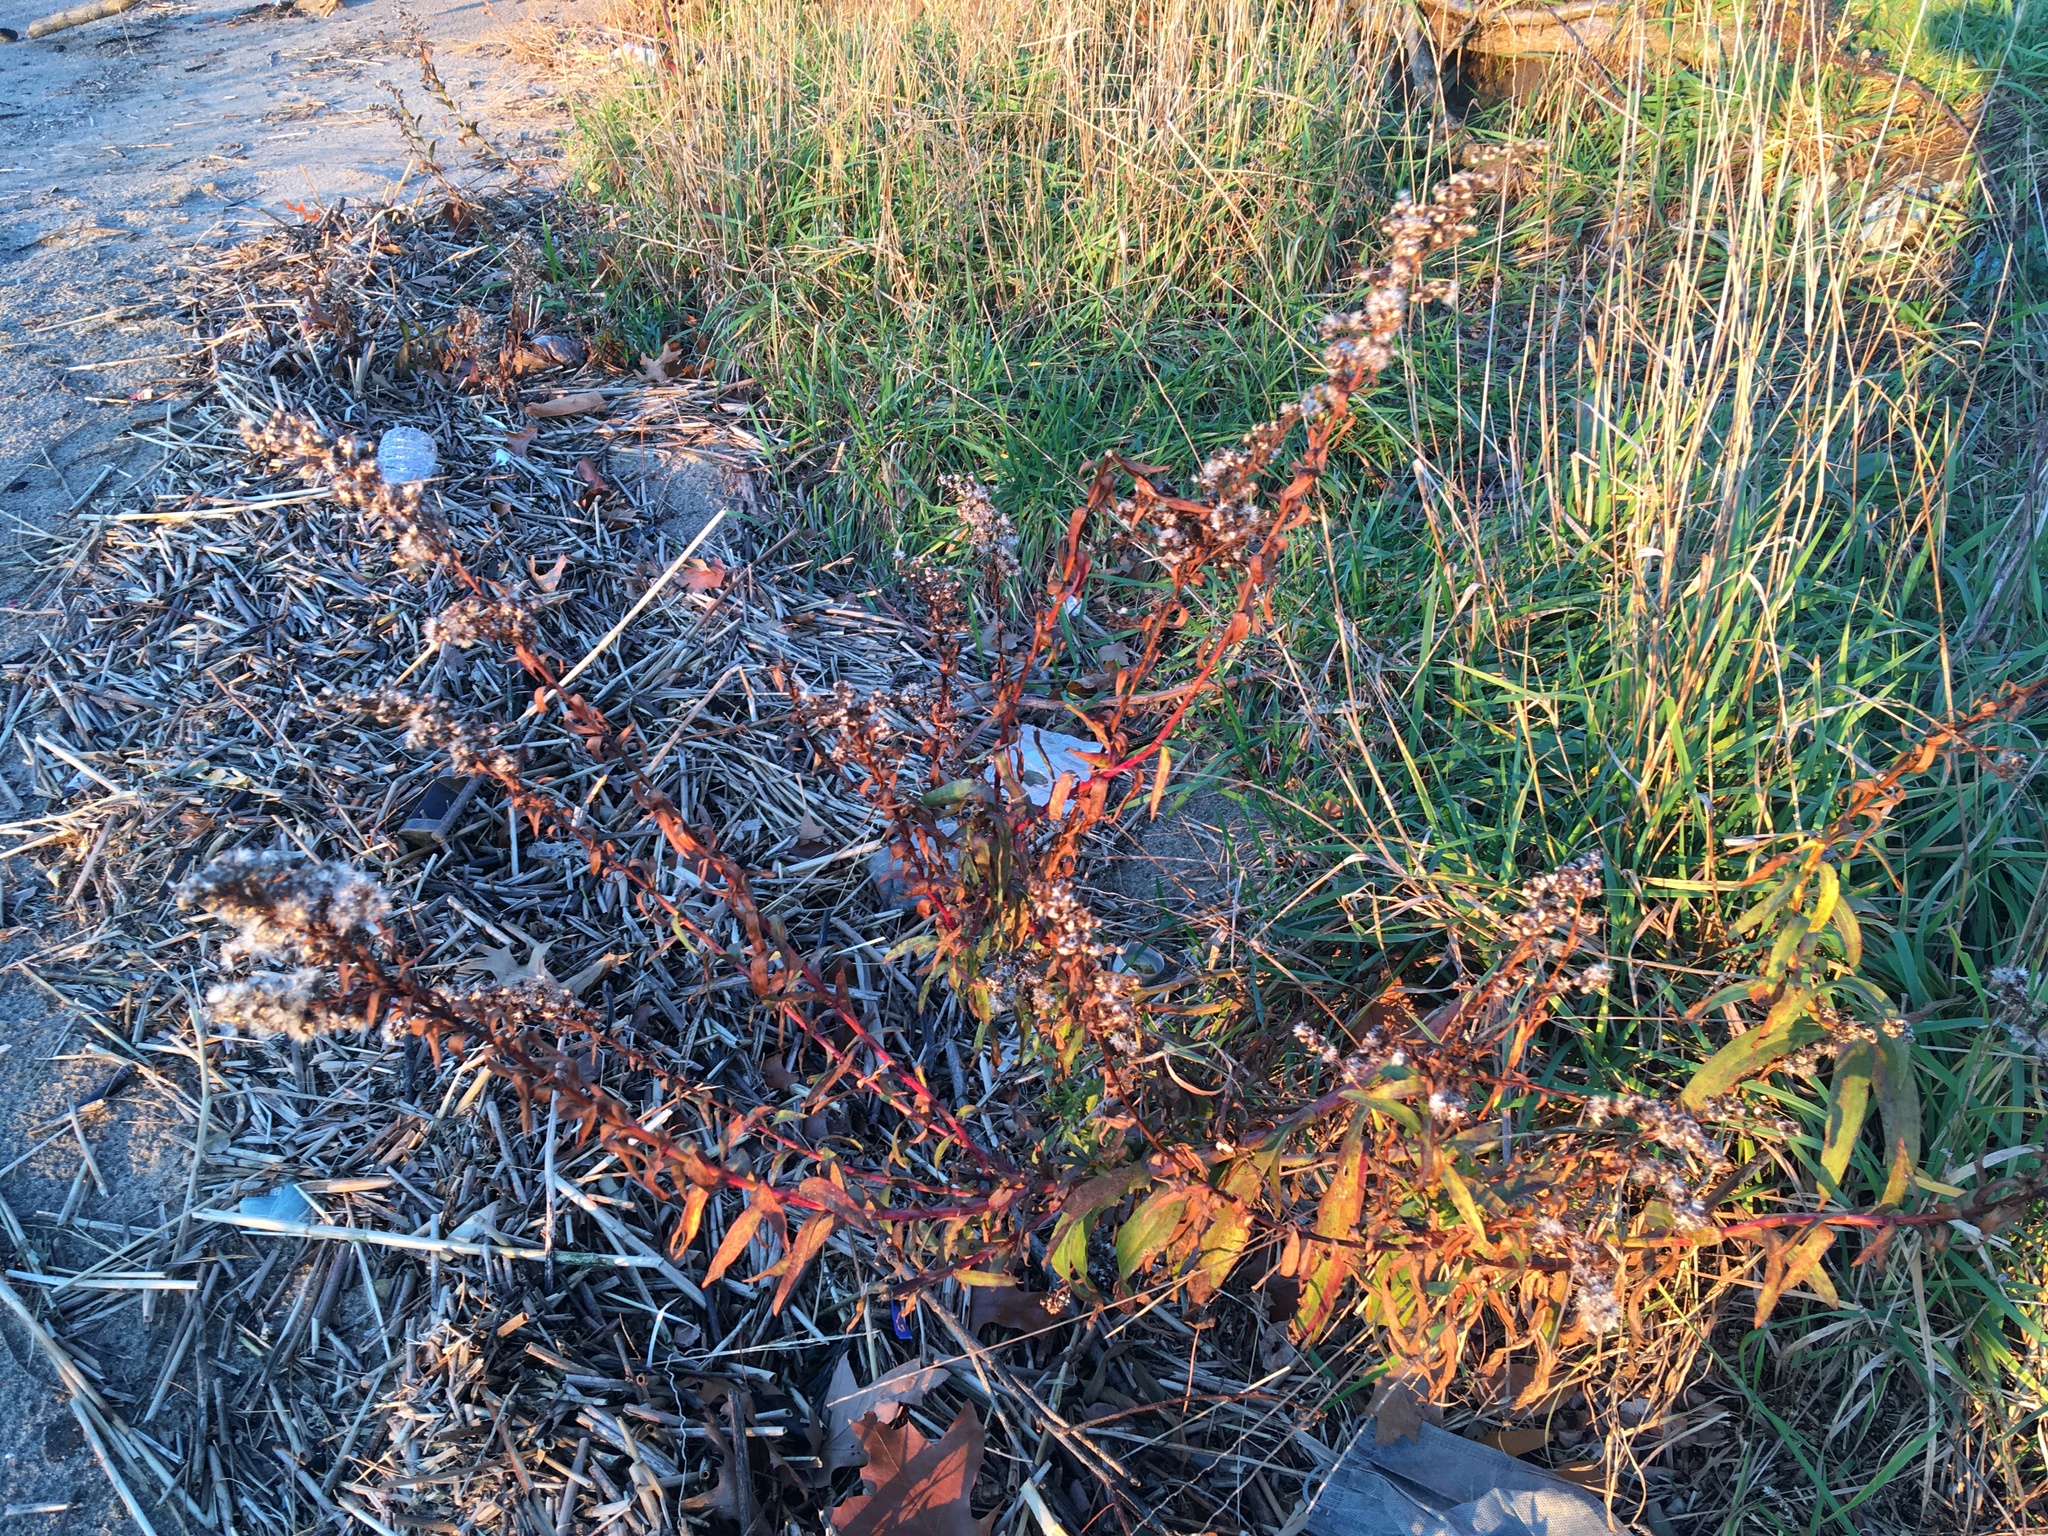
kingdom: Plantae
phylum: Tracheophyta
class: Magnoliopsida
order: Asterales
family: Asteraceae
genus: Solidago
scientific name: Solidago sempervirens
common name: Salt-marsh goldenrod
